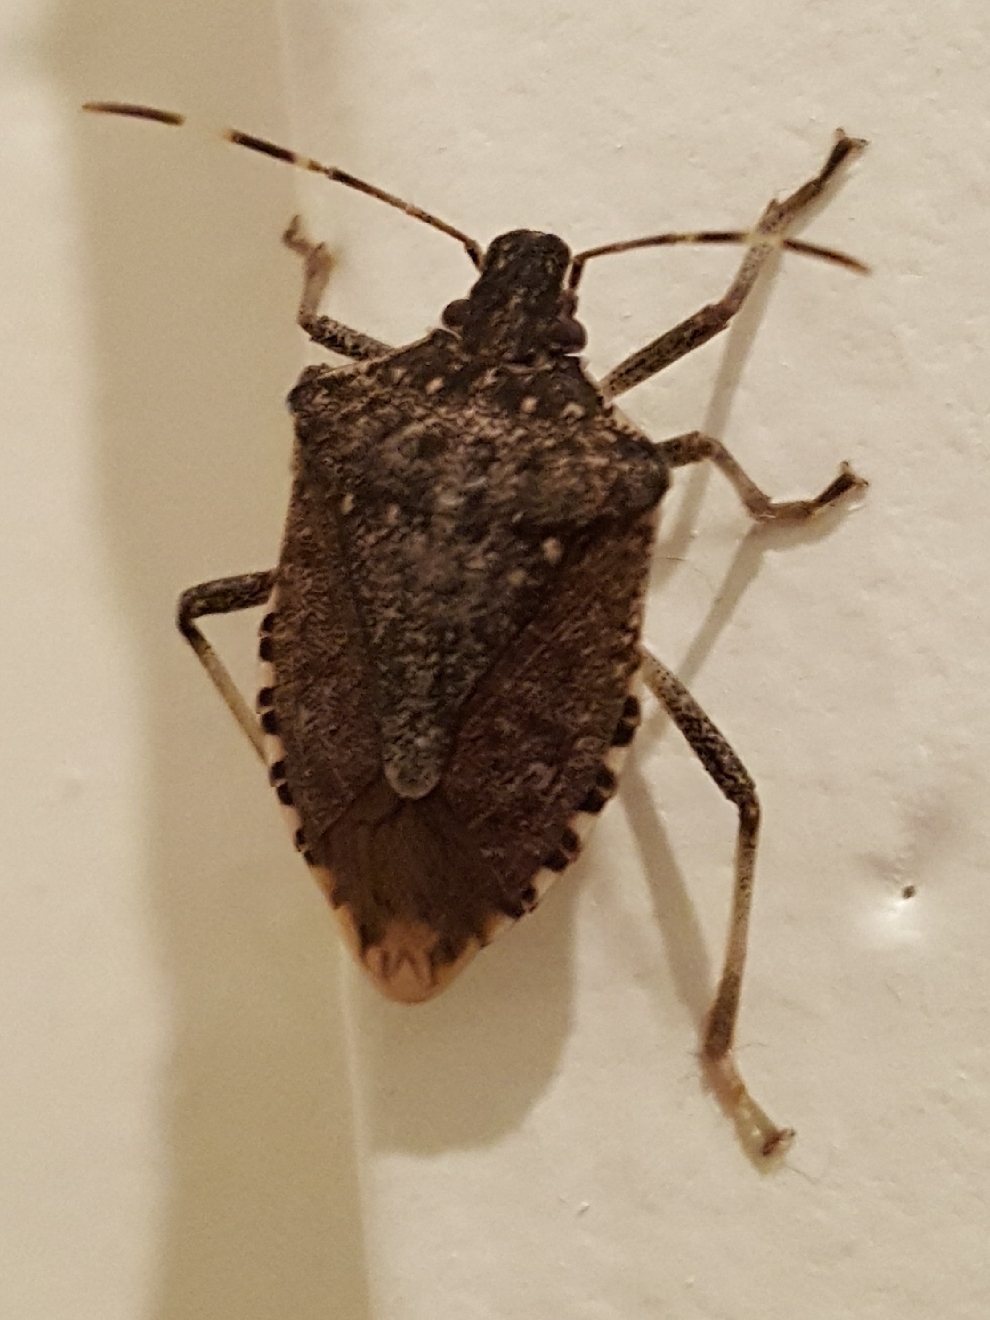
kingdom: Animalia
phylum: Arthropoda
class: Insecta
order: Hemiptera
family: Pentatomidae
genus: Halyomorpha
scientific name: Halyomorpha halys
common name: Brown marmorated stink bug
